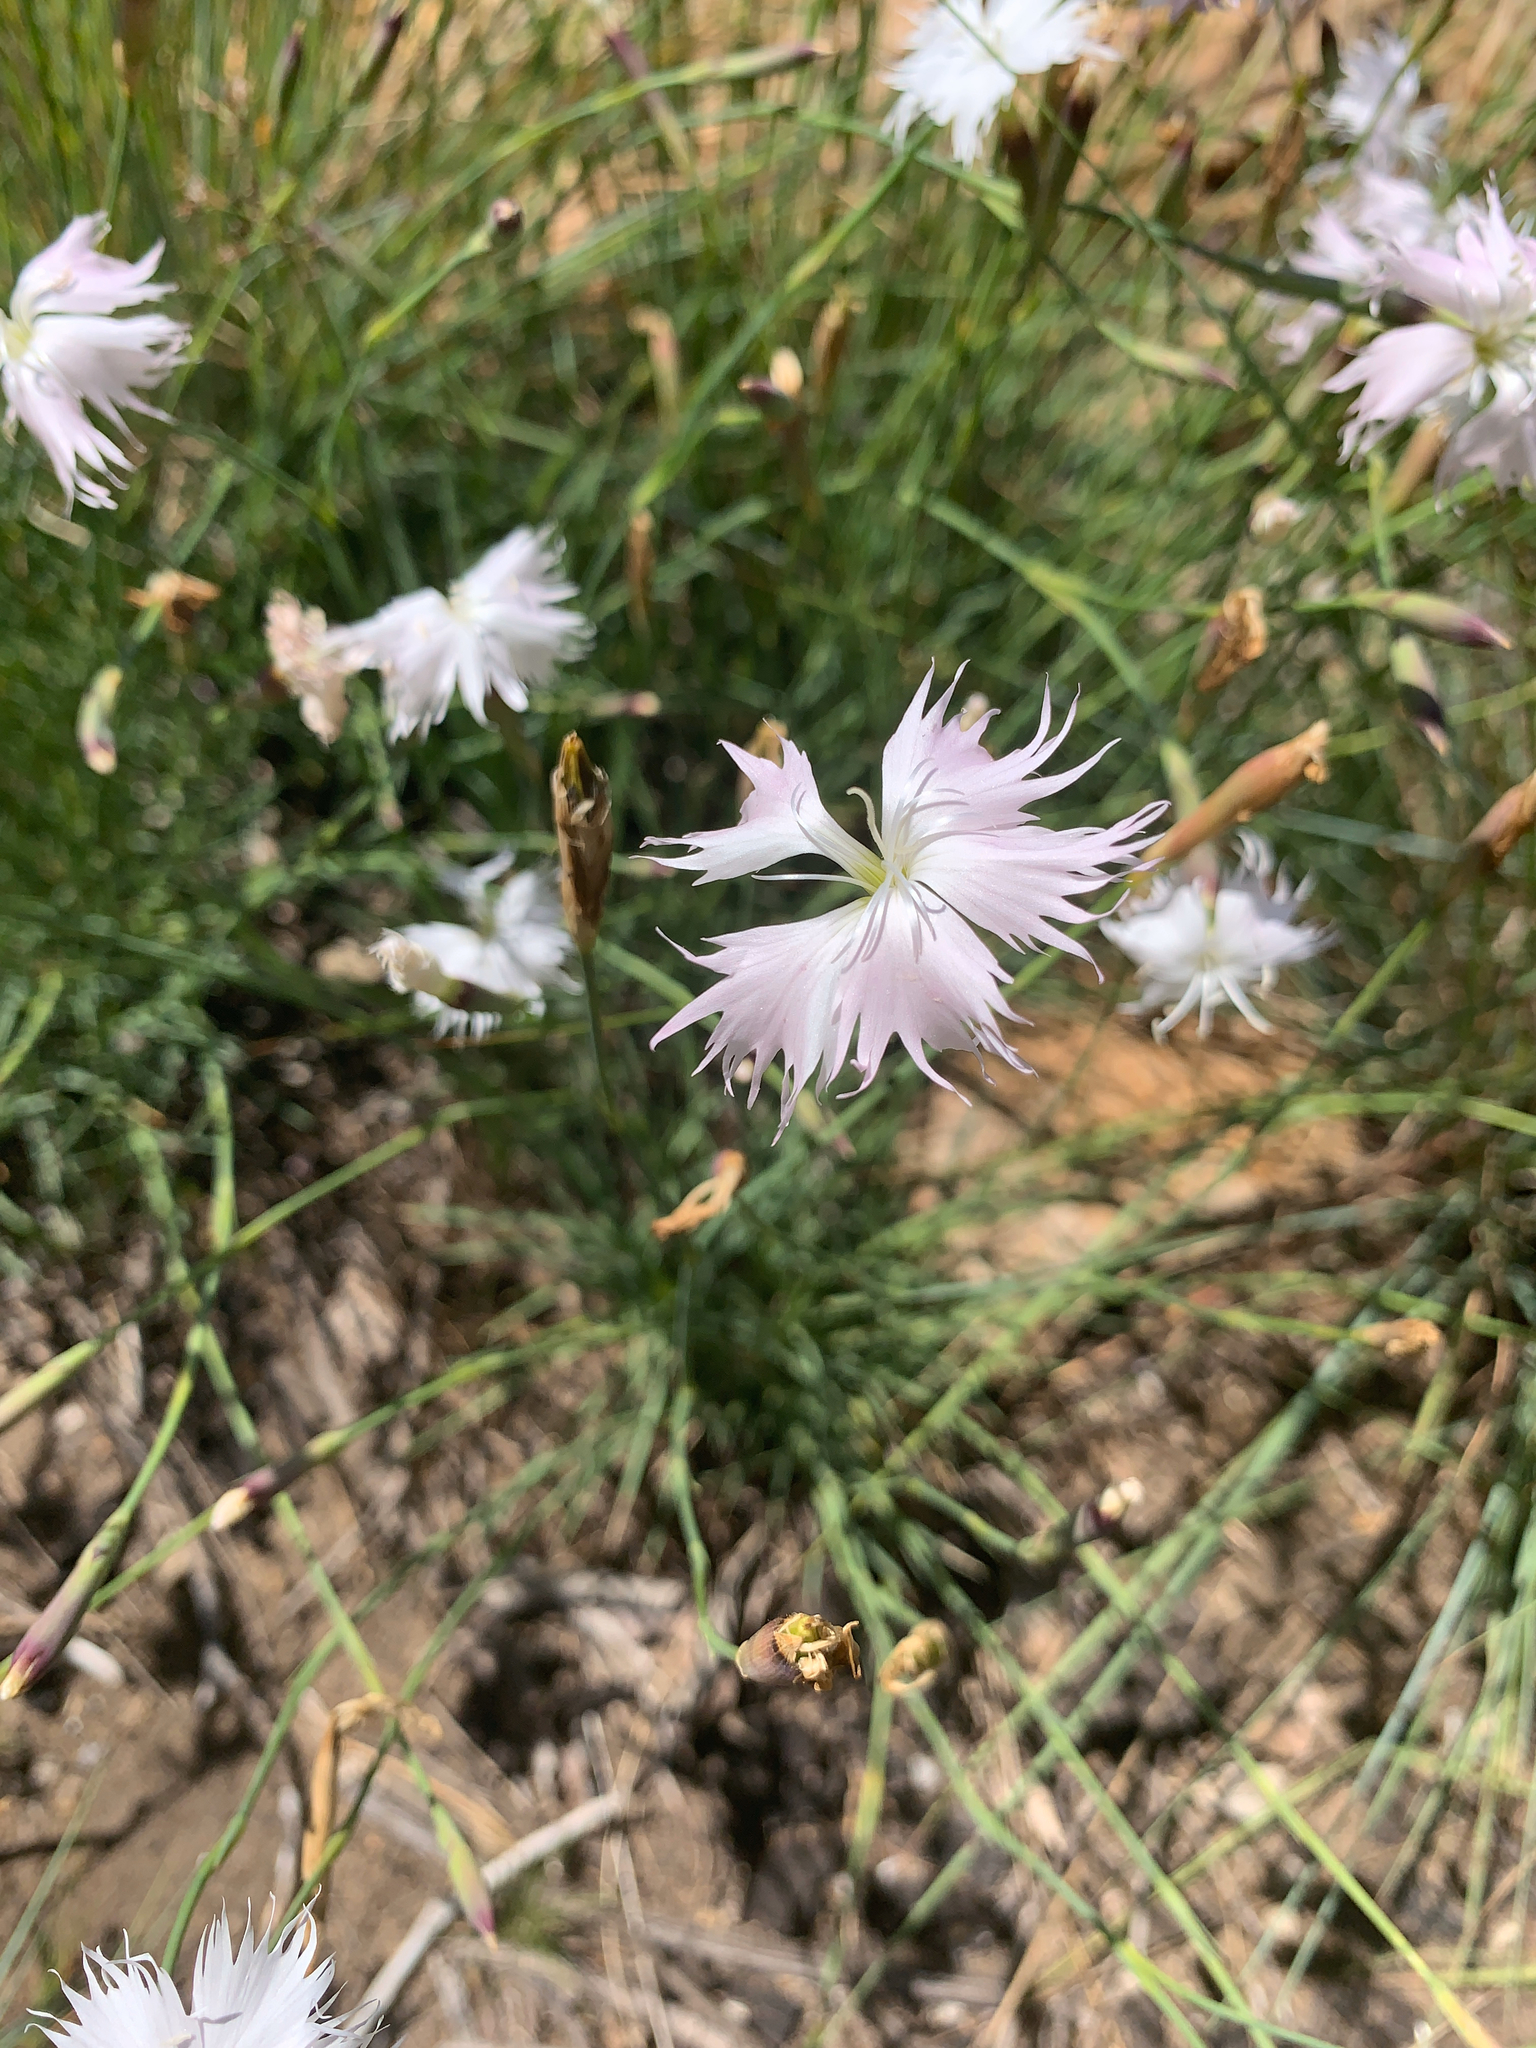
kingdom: Plantae
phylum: Tracheophyta
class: Magnoliopsida
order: Caryophyllales
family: Caryophyllaceae
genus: Dianthus
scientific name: Dianthus mooiensis
